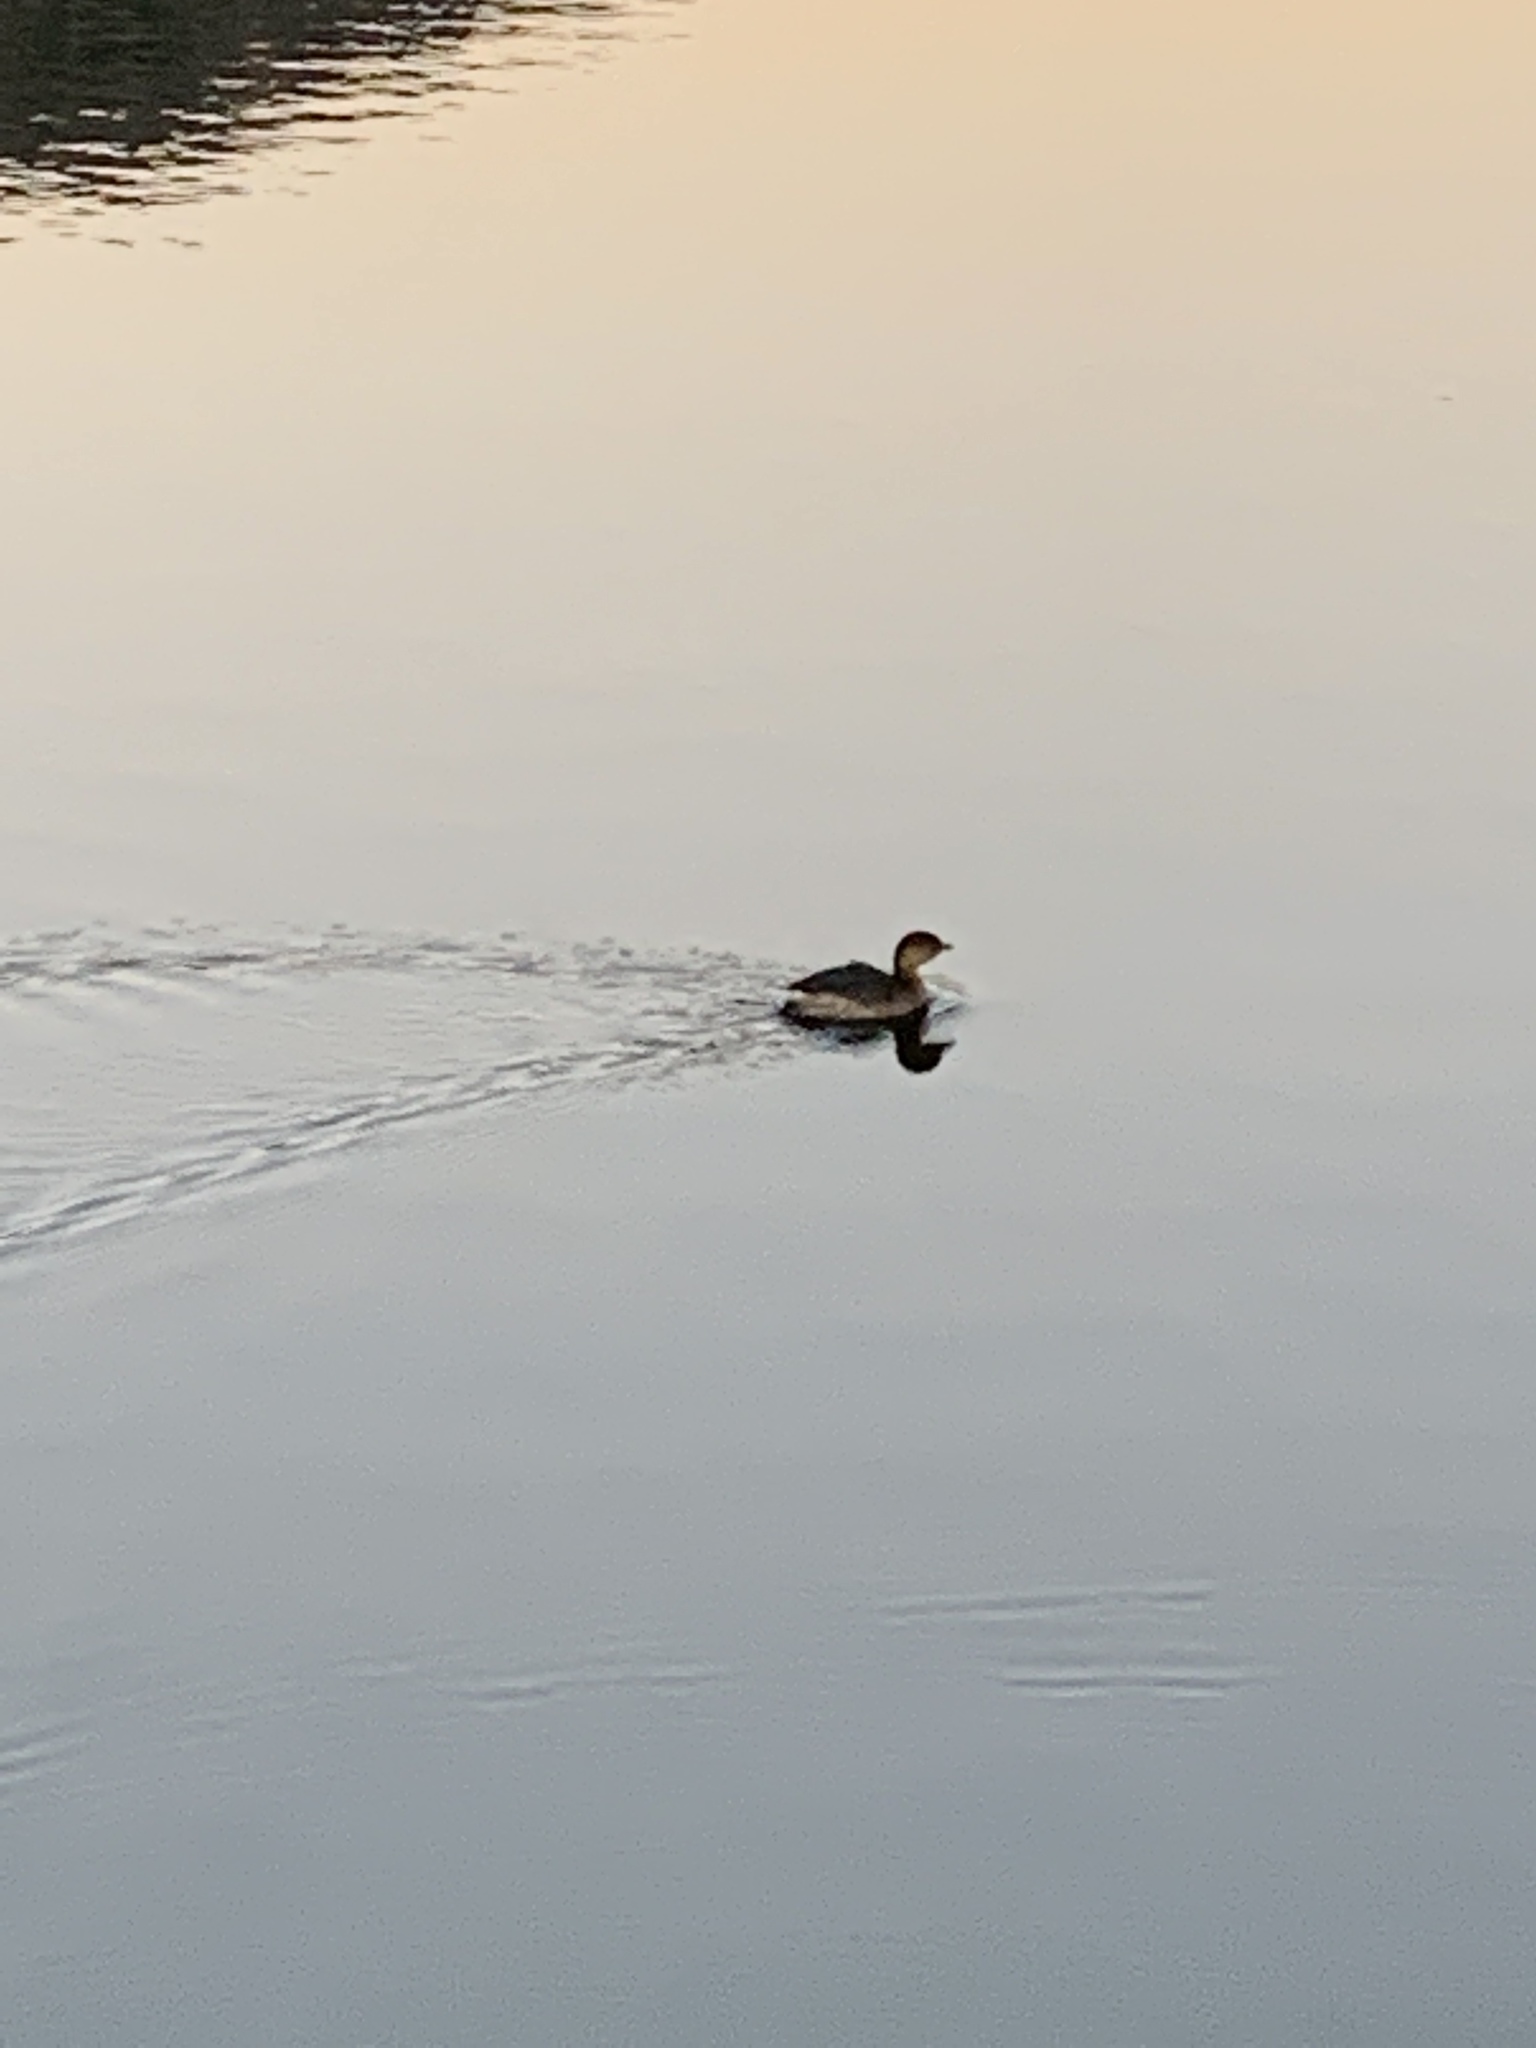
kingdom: Animalia
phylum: Chordata
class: Aves
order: Podicipediformes
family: Podicipedidae
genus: Podilymbus
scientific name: Podilymbus podiceps
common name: Pied-billed grebe
